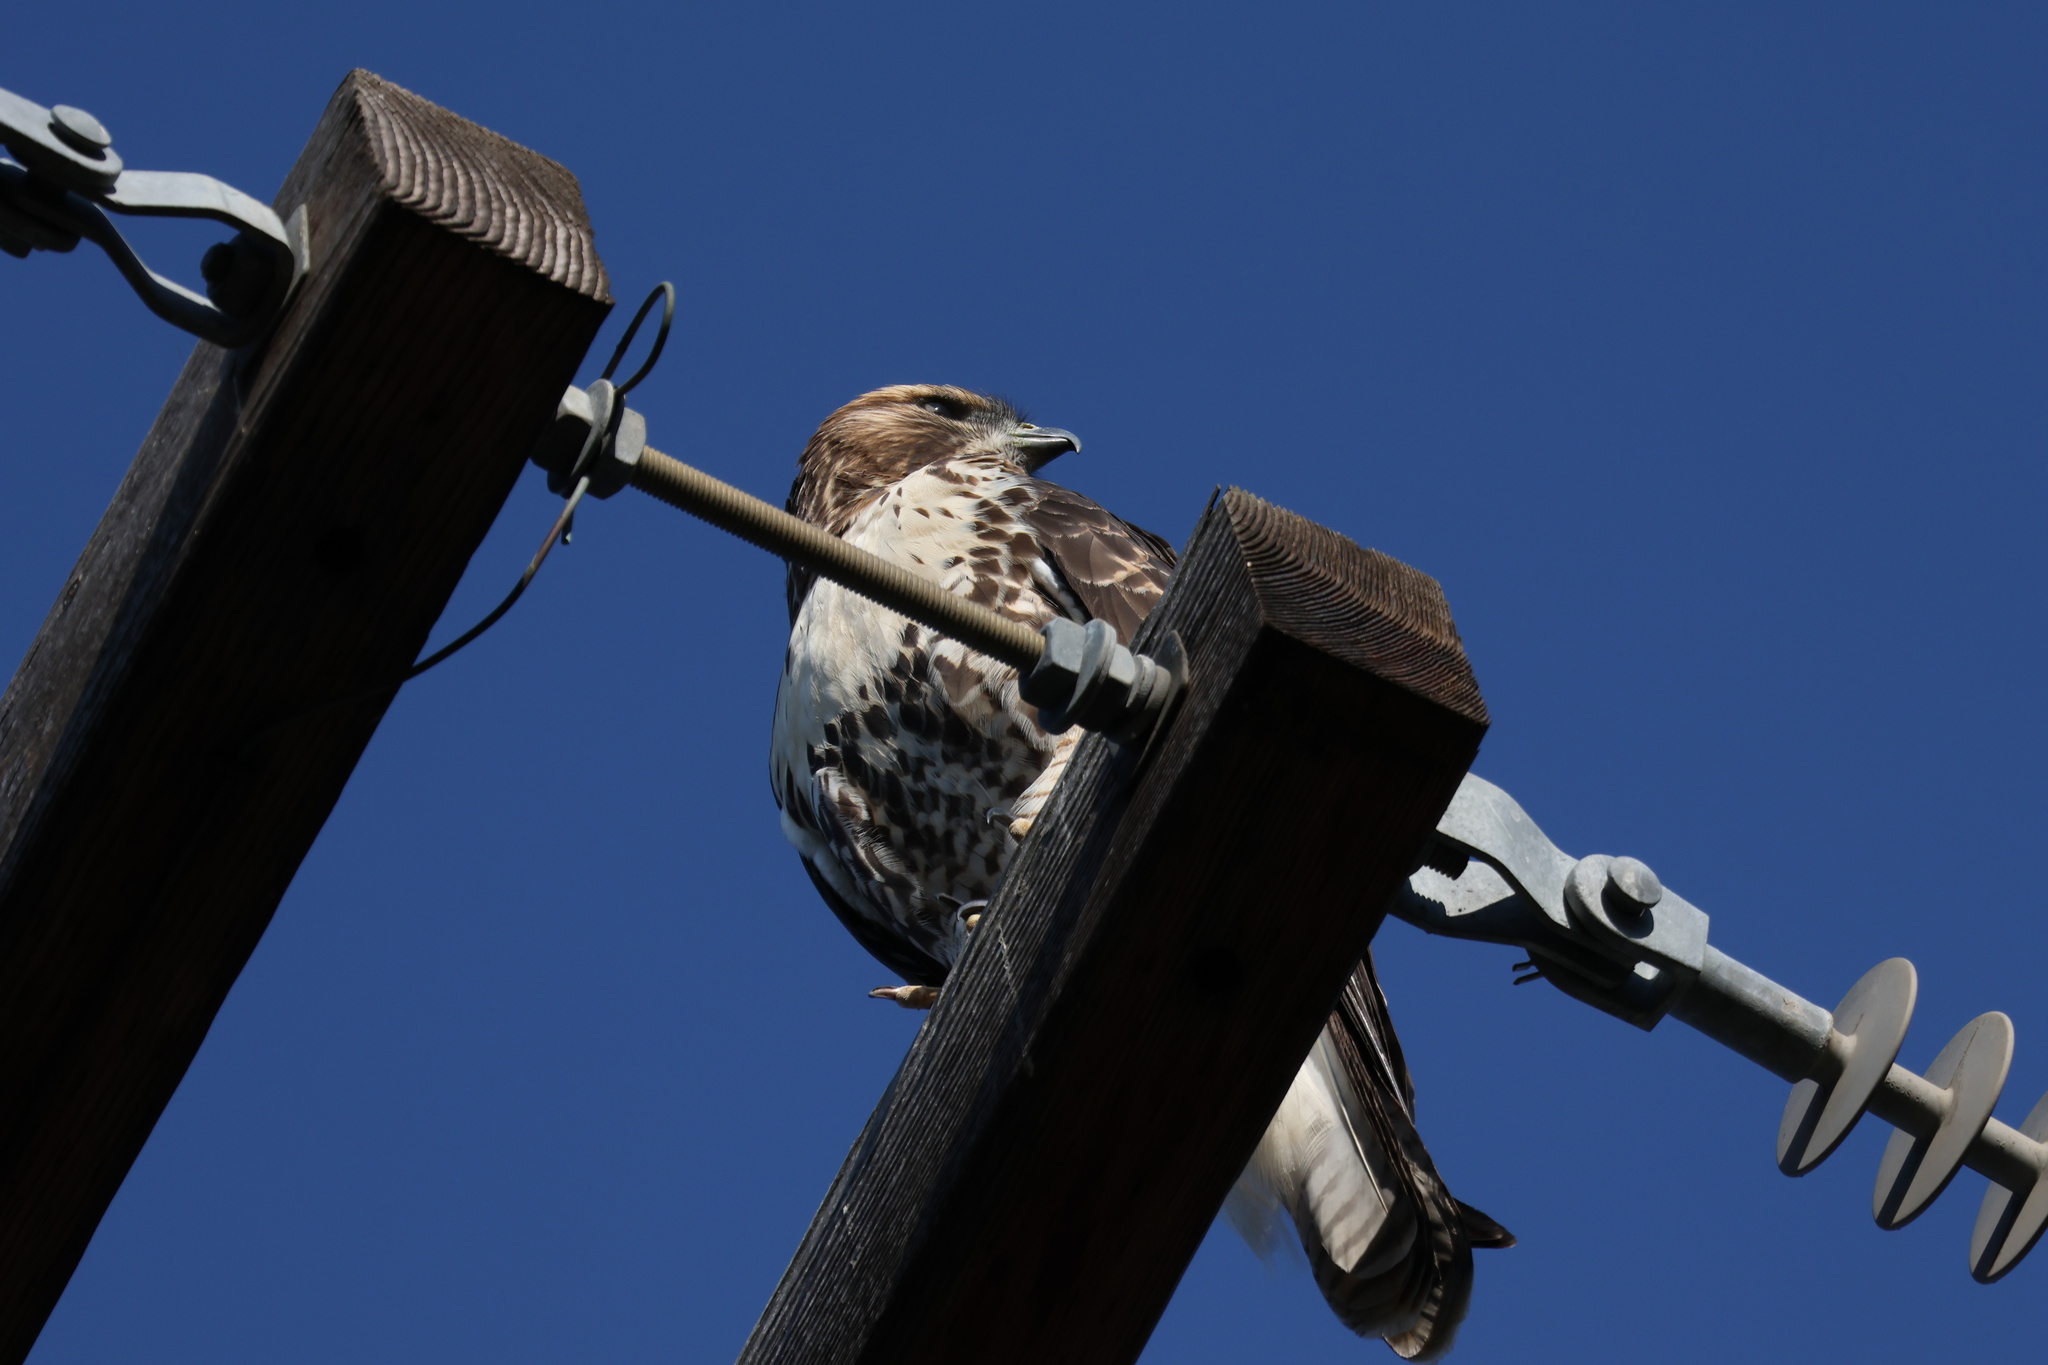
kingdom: Animalia
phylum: Chordata
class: Aves
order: Accipitriformes
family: Accipitridae
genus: Buteo
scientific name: Buteo jamaicensis
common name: Red-tailed hawk
